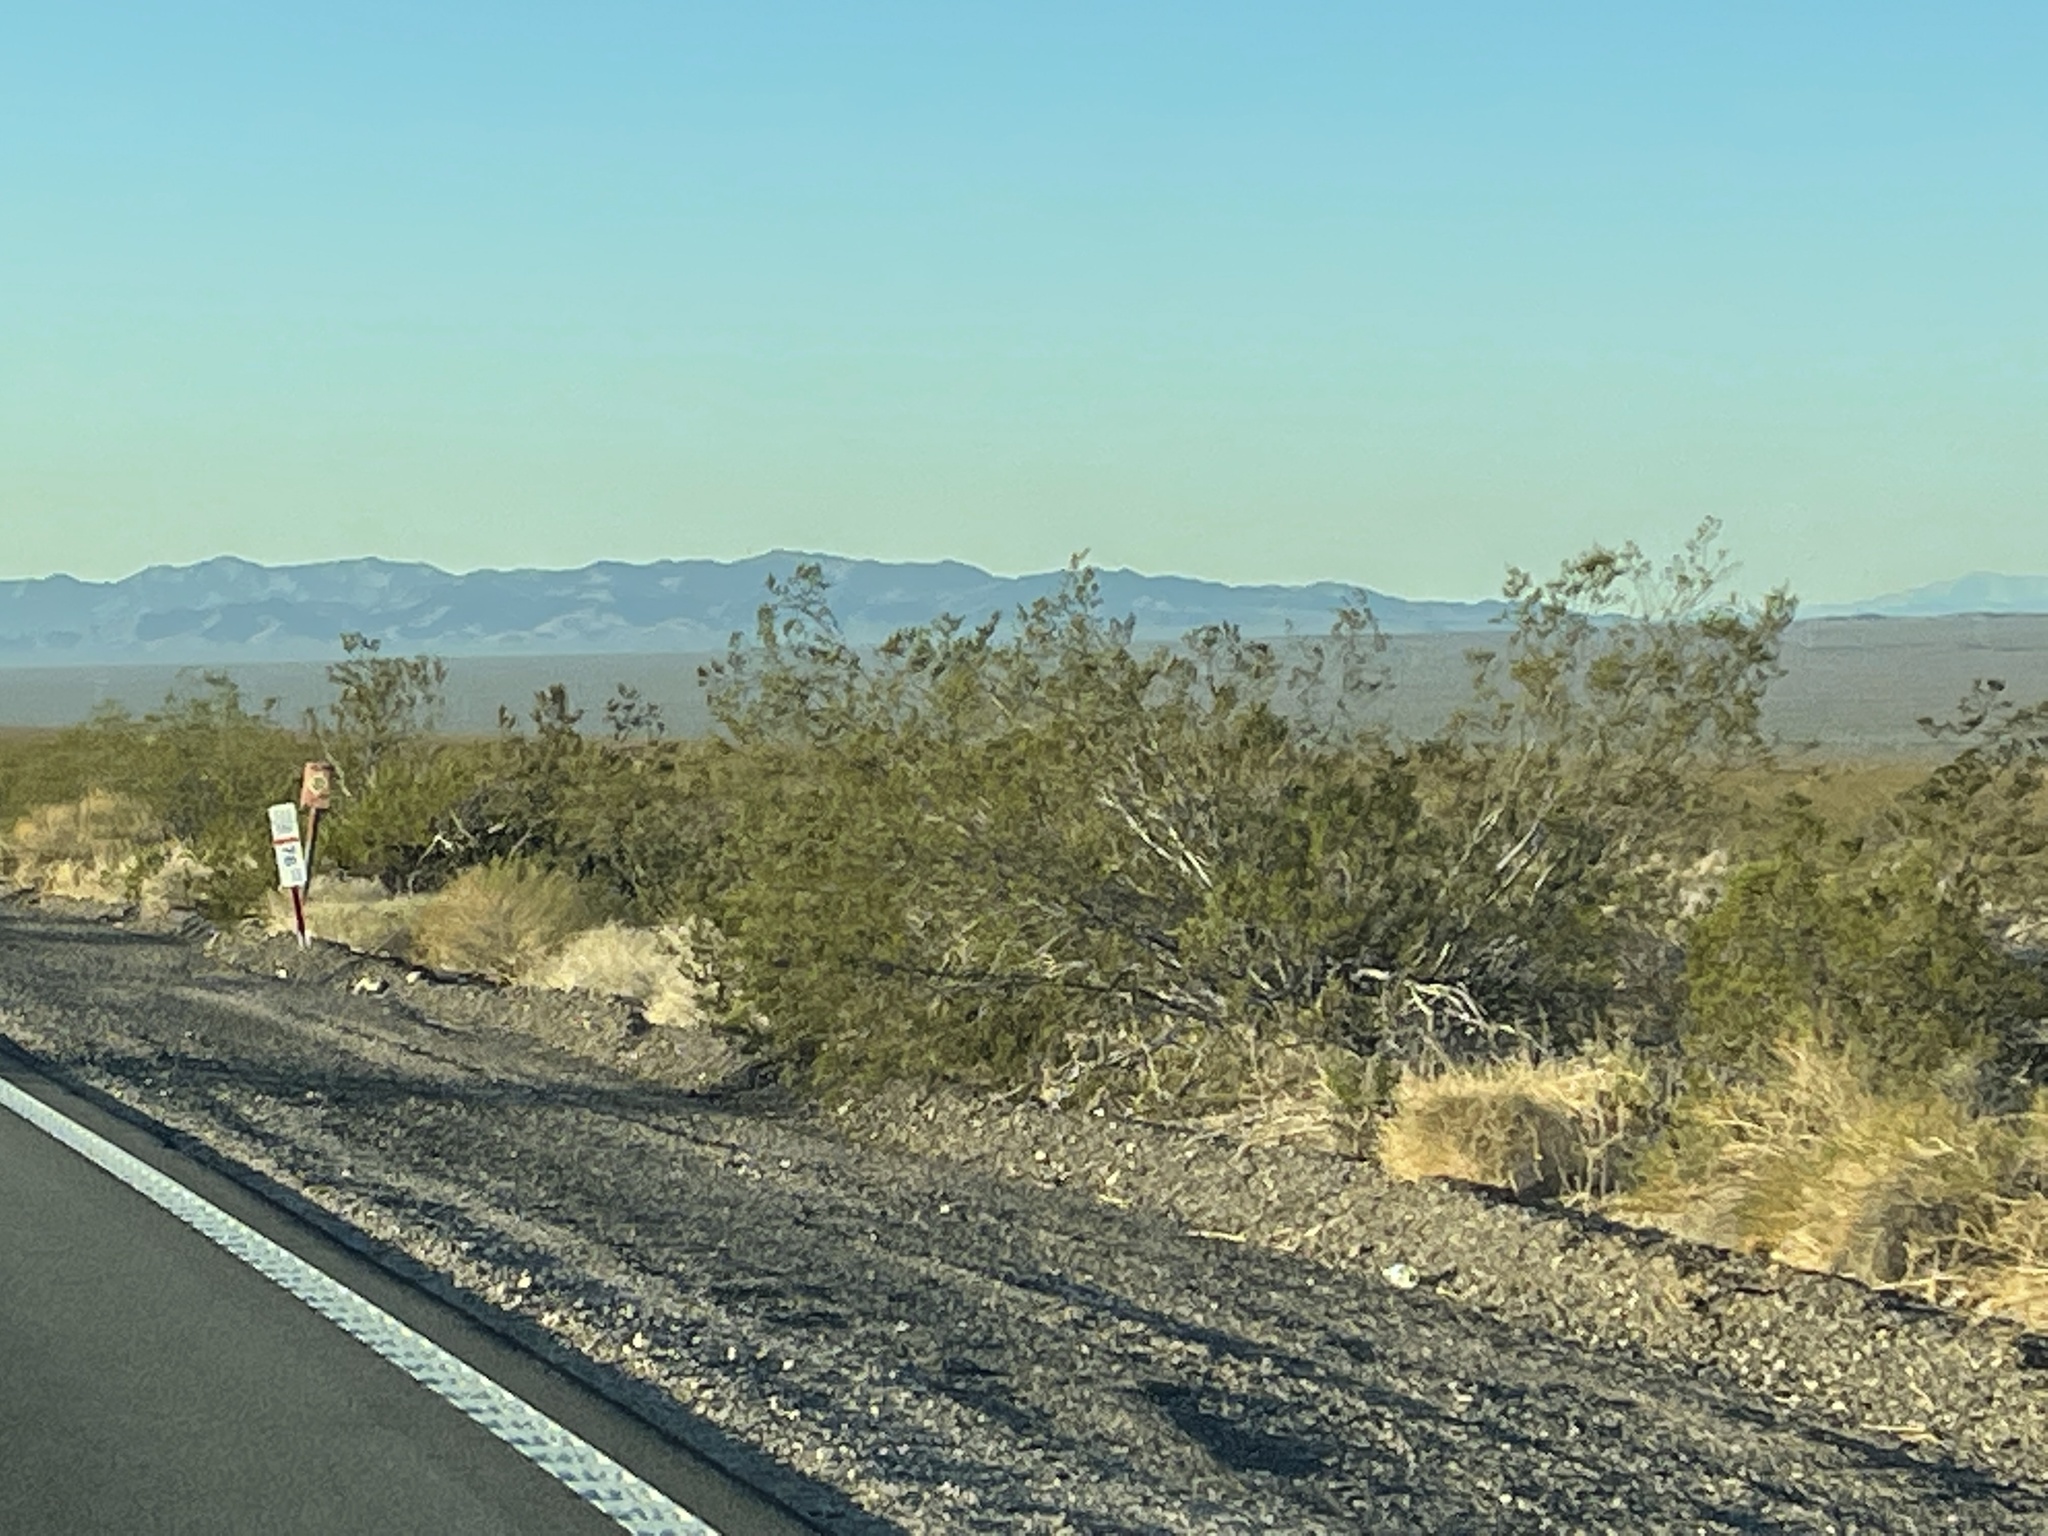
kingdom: Plantae
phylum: Tracheophyta
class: Magnoliopsida
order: Zygophyllales
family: Zygophyllaceae
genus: Larrea
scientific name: Larrea tridentata
